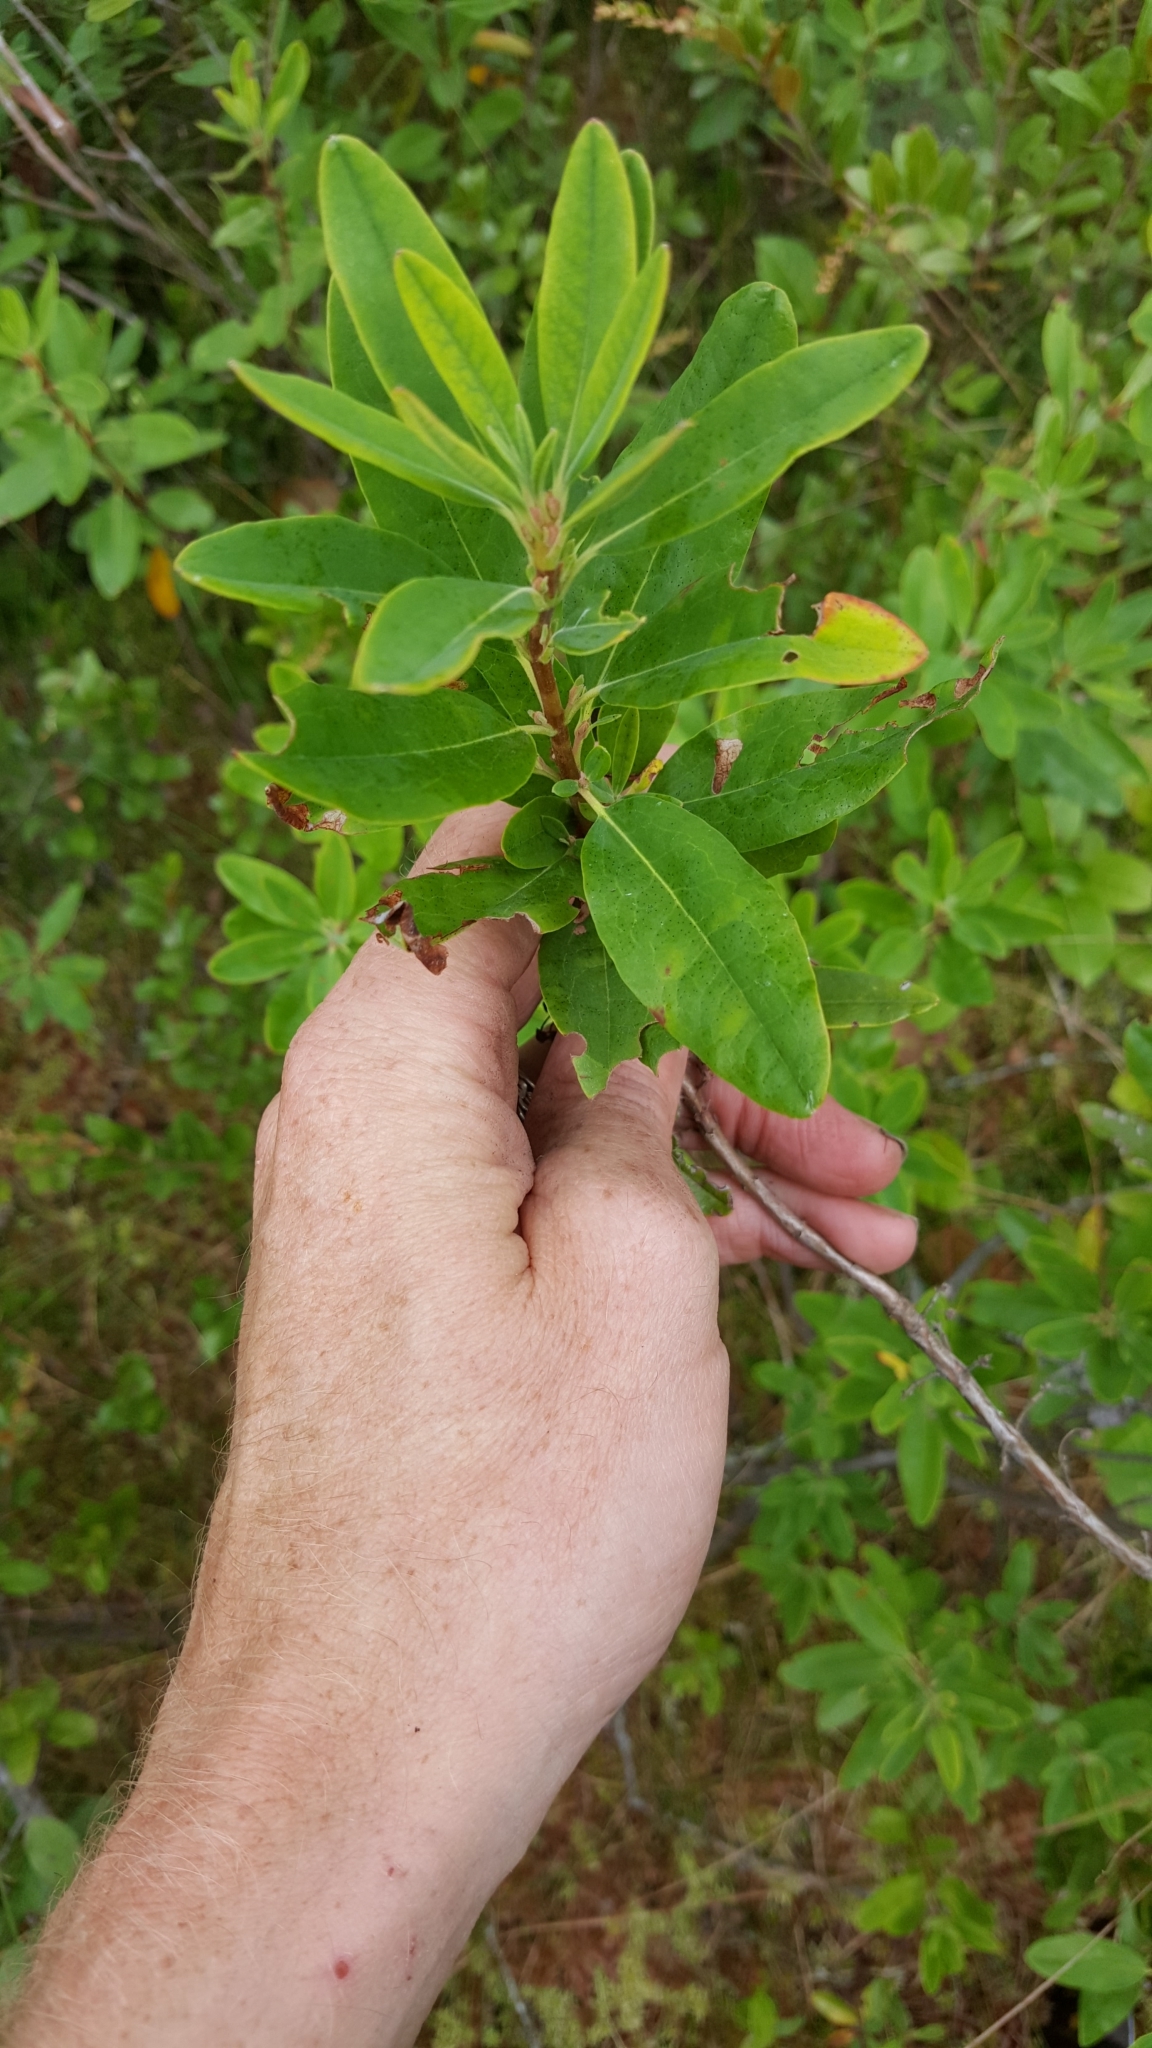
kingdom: Plantae
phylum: Tracheophyta
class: Magnoliopsida
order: Ericales
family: Ericaceae
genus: Kalmia
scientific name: Kalmia angustifolia
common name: Sheep-laurel
